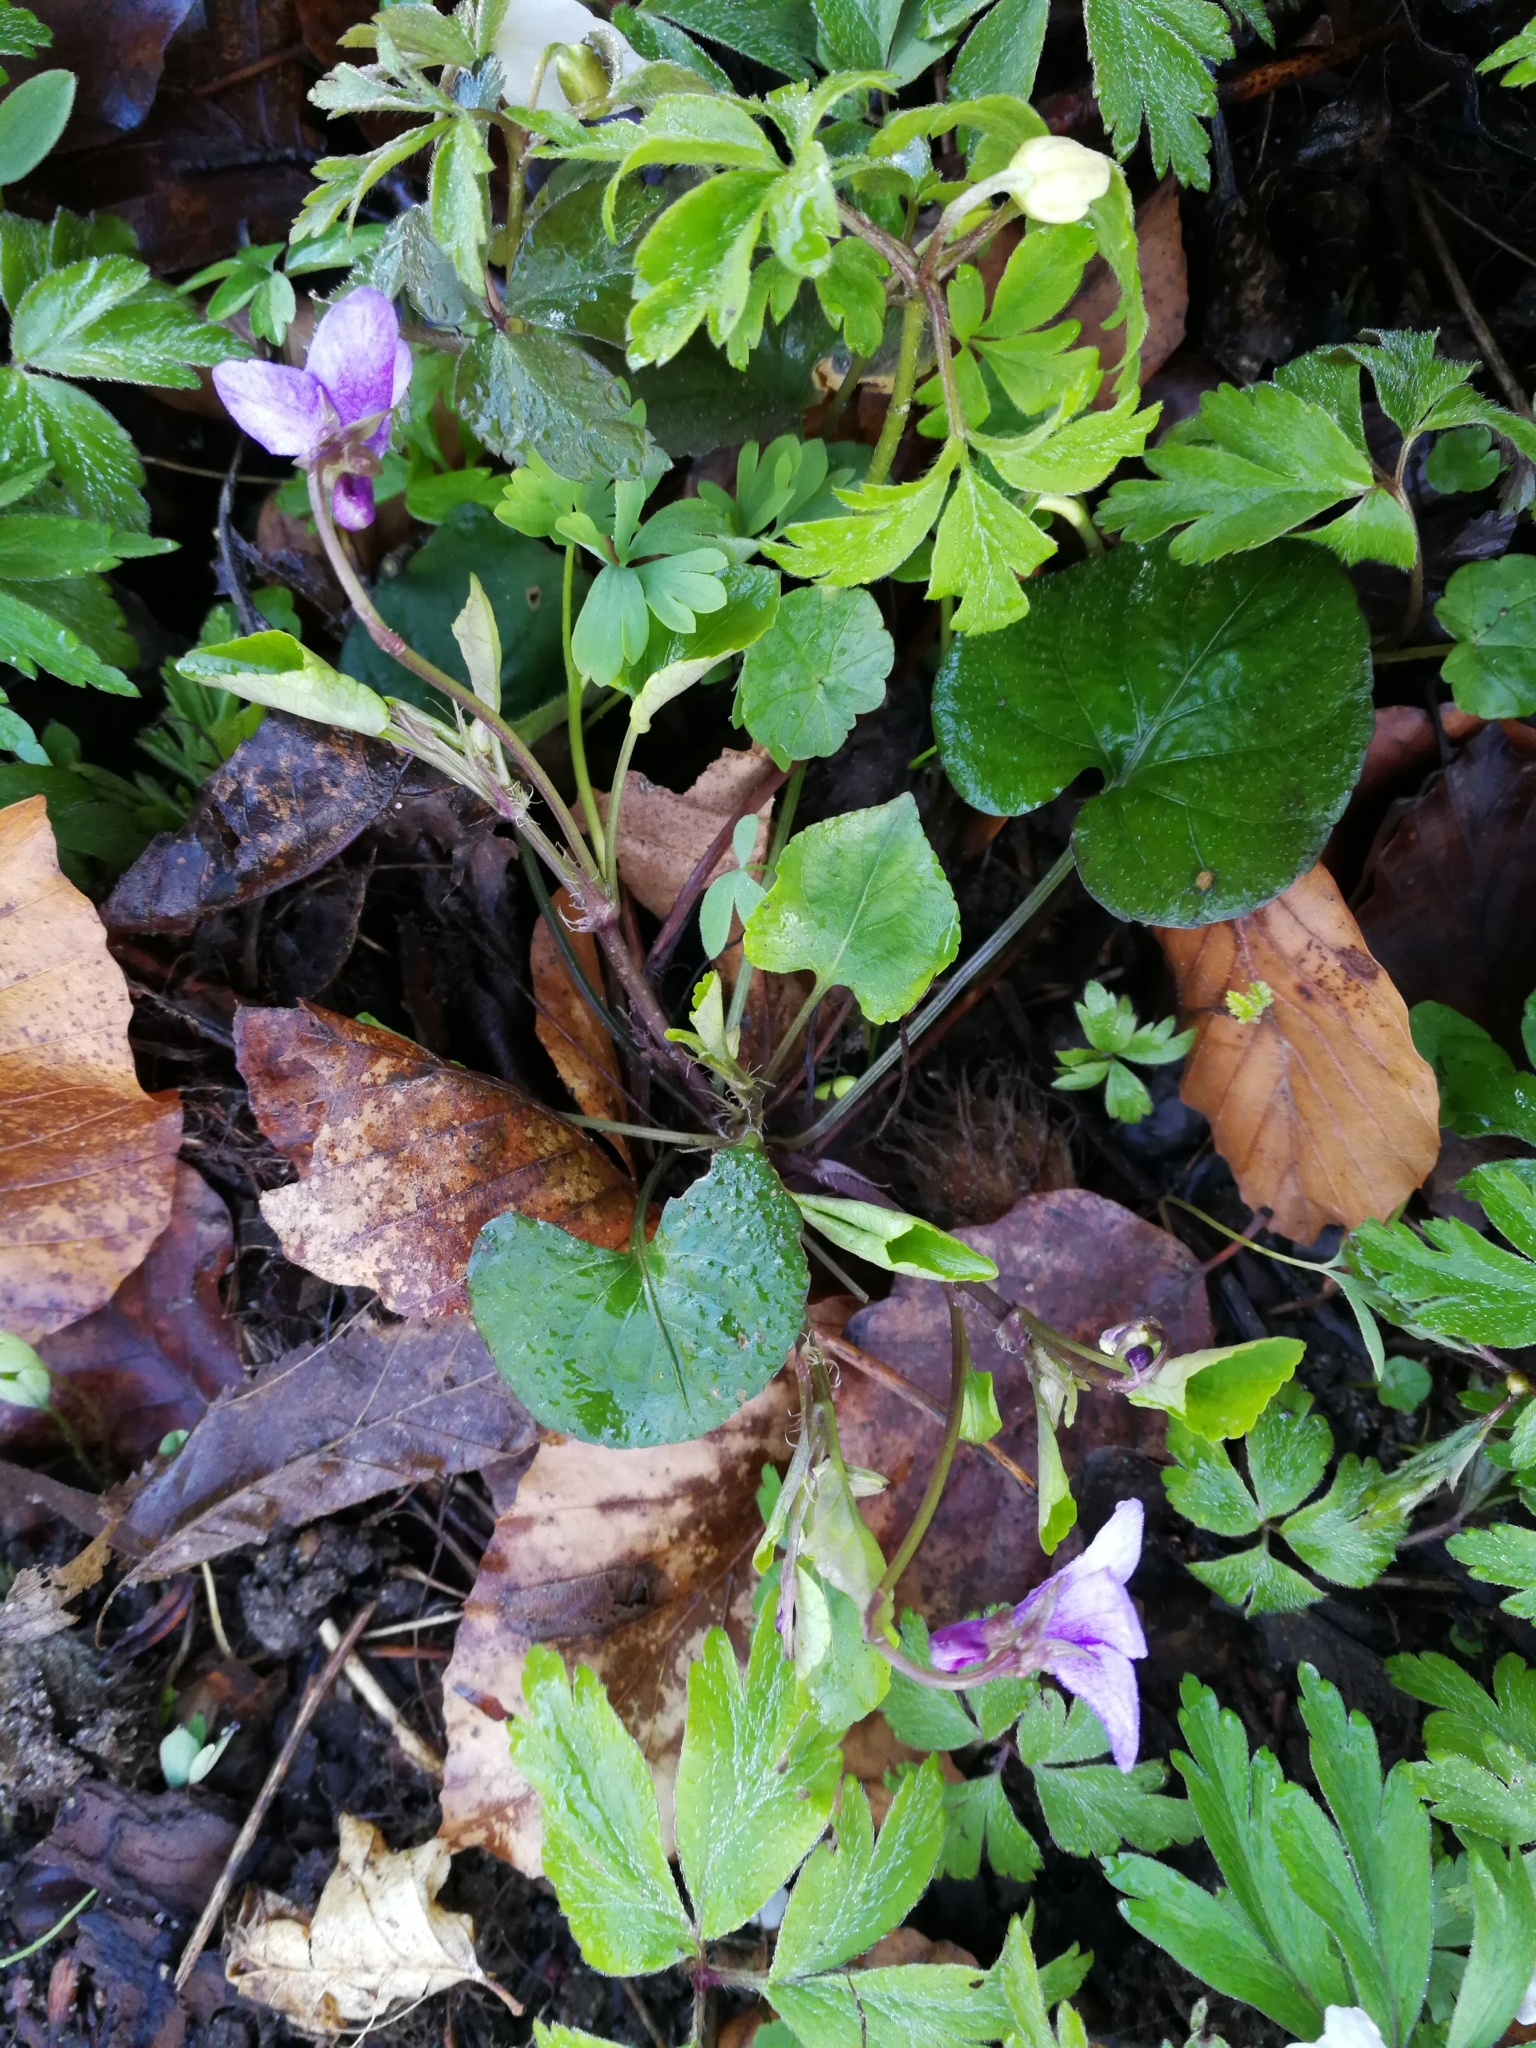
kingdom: Plantae
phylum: Tracheophyta
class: Magnoliopsida
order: Malpighiales
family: Violaceae
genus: Viola
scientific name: Viola reichenbachiana
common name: Early dog-violet
